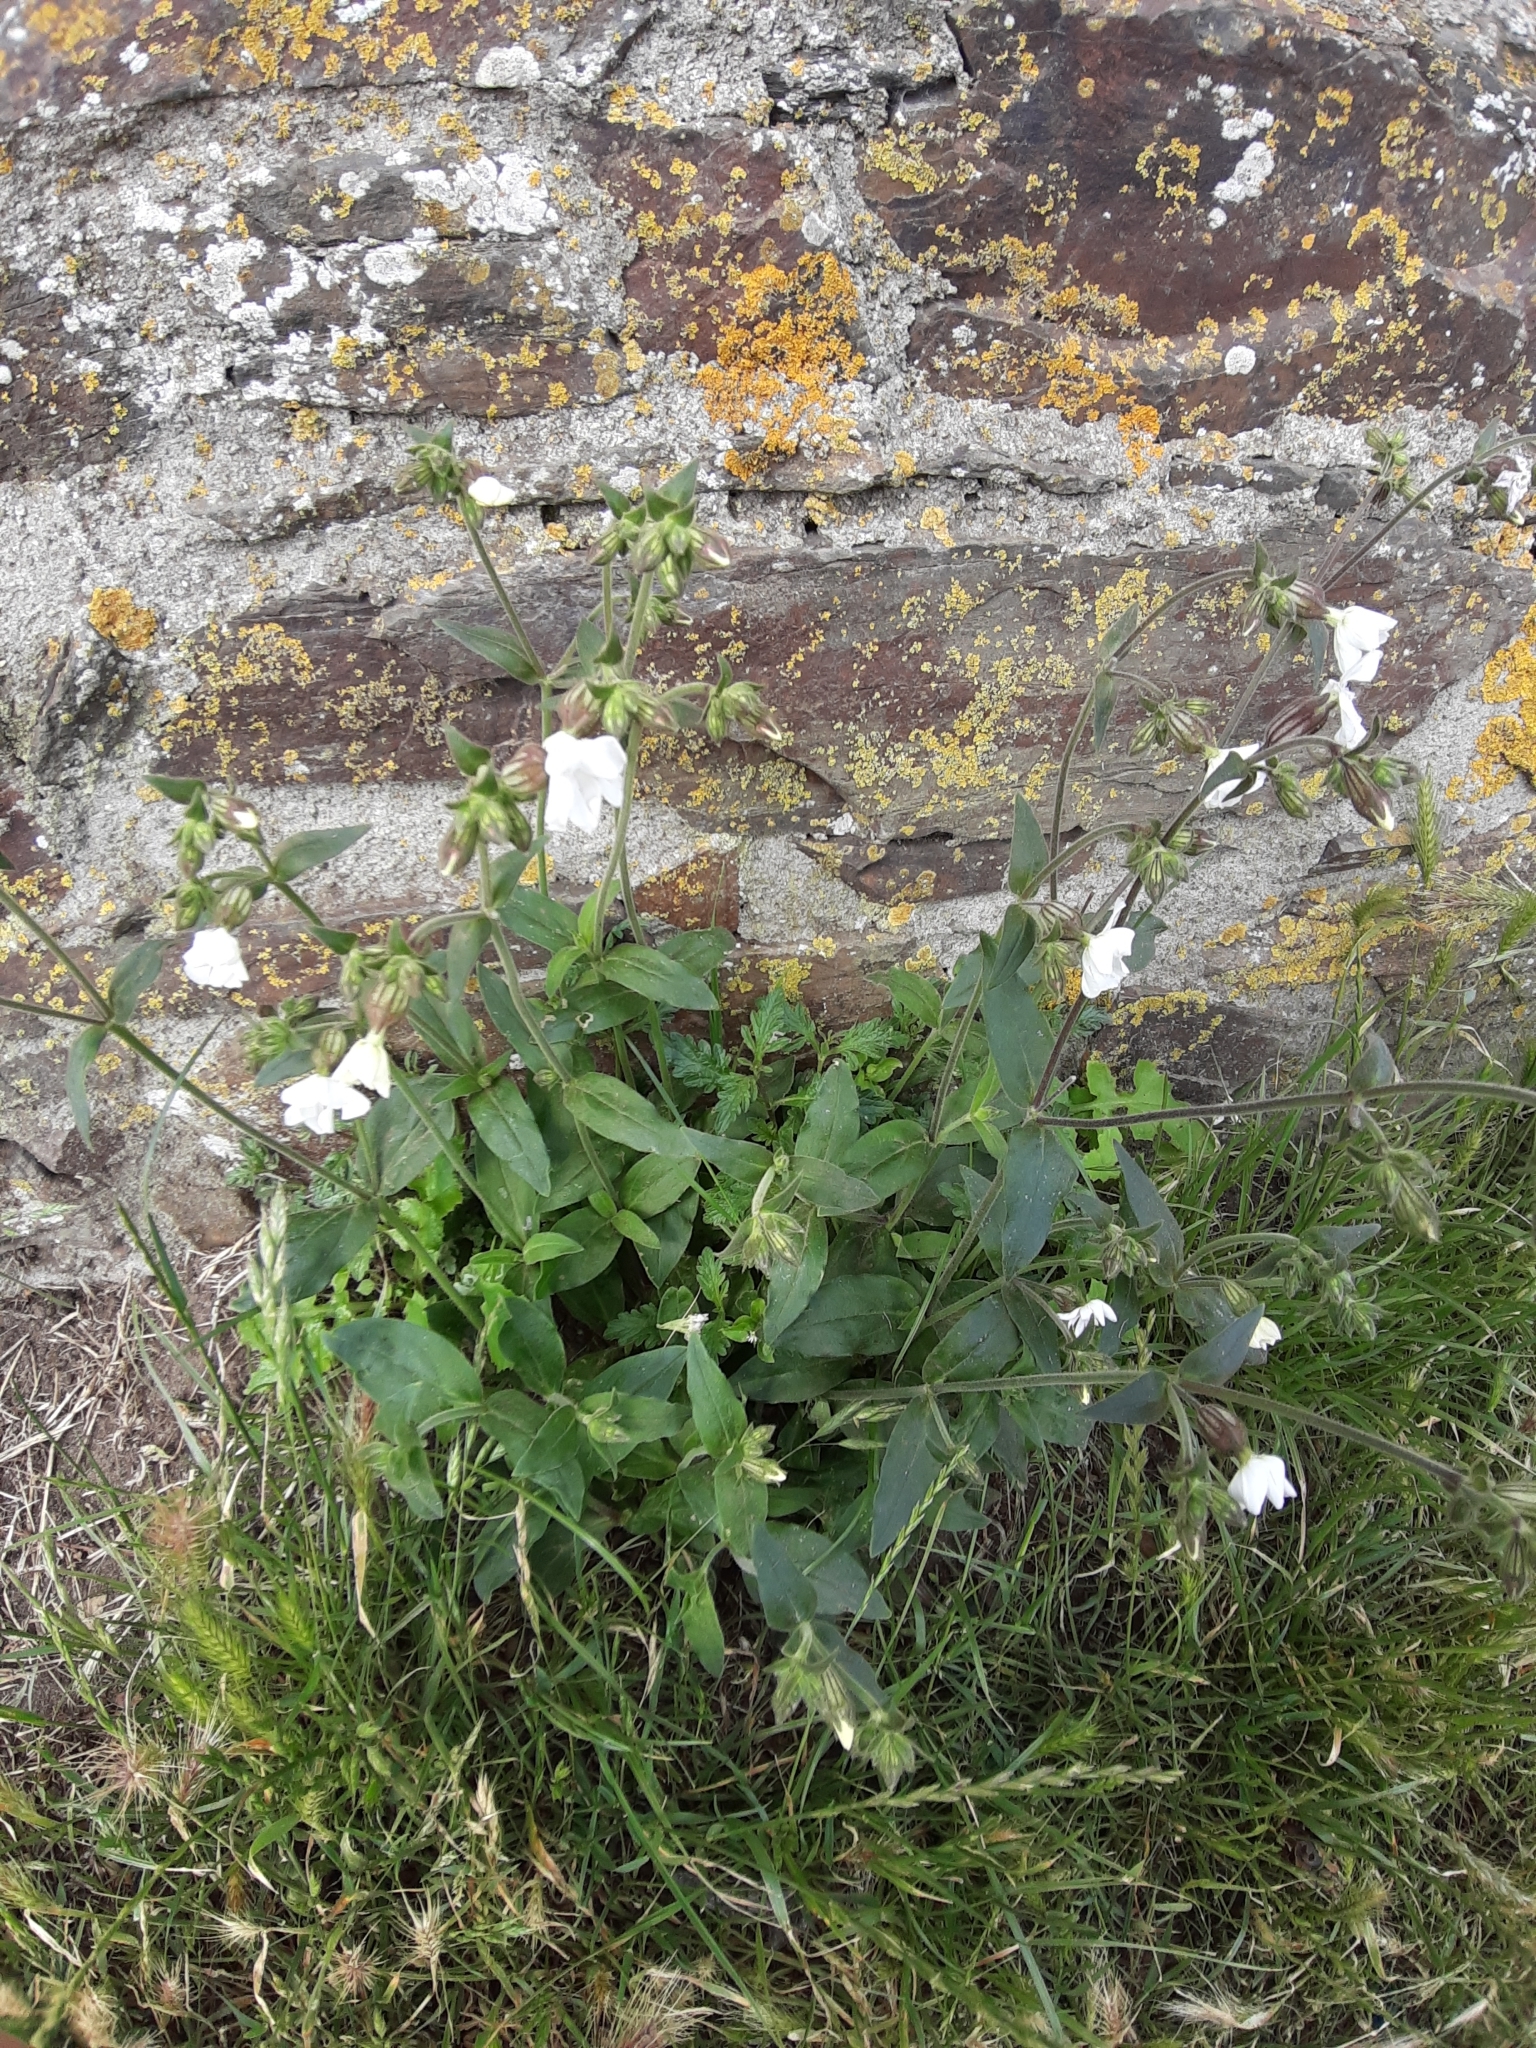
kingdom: Plantae
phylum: Tracheophyta
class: Magnoliopsida
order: Caryophyllales
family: Caryophyllaceae
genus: Silene
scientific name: Silene latifolia
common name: White campion
